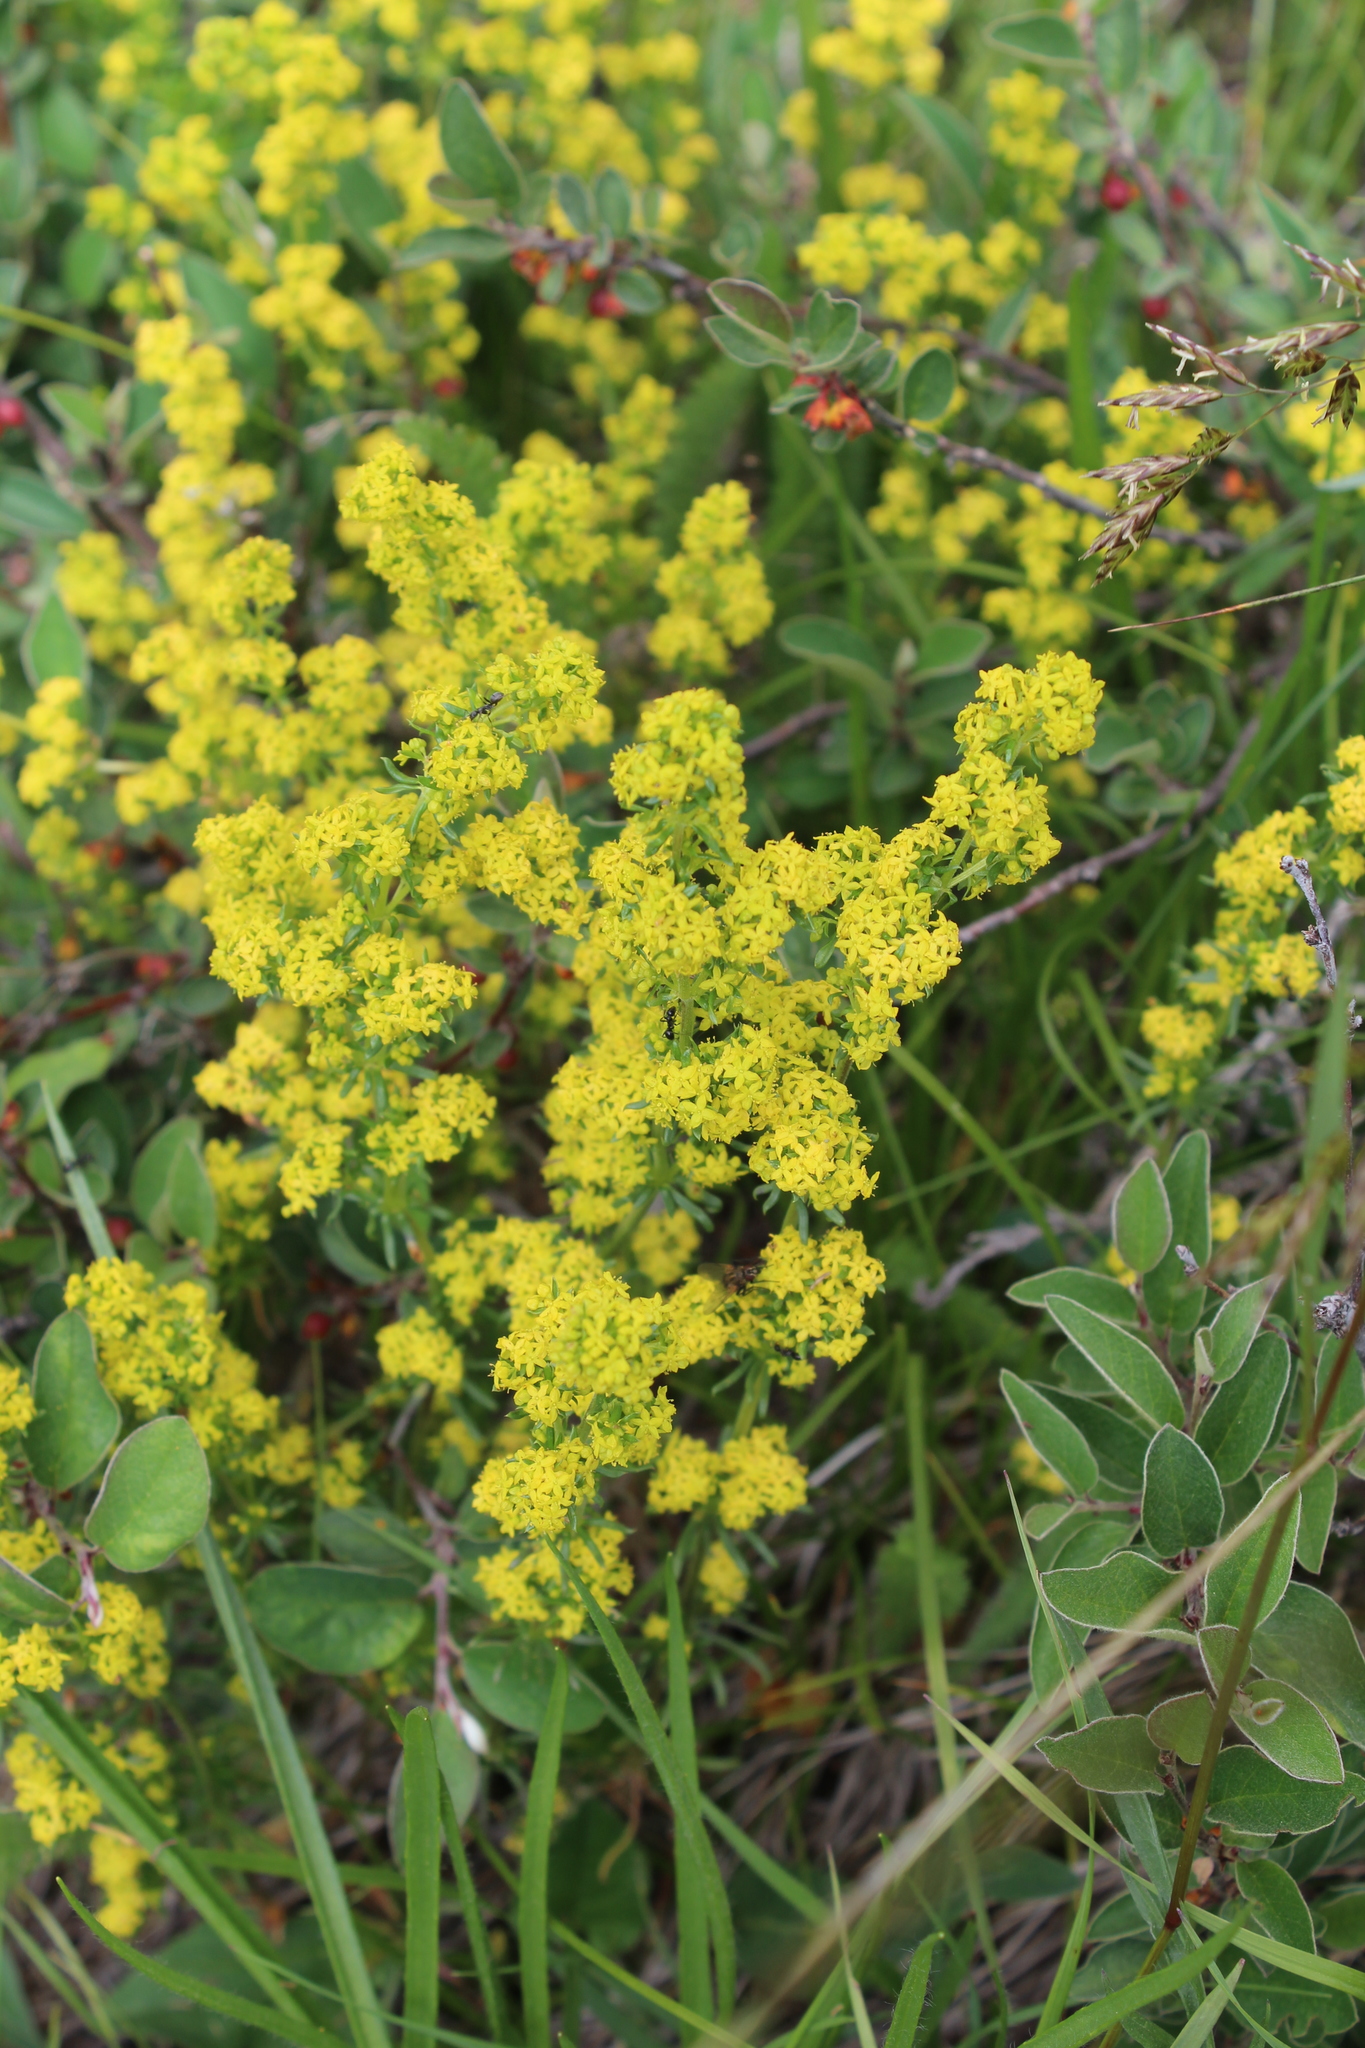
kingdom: Plantae
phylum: Tracheophyta
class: Magnoliopsida
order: Gentianales
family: Rubiaceae
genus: Galium
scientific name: Galium verum
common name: Lady's bedstraw
